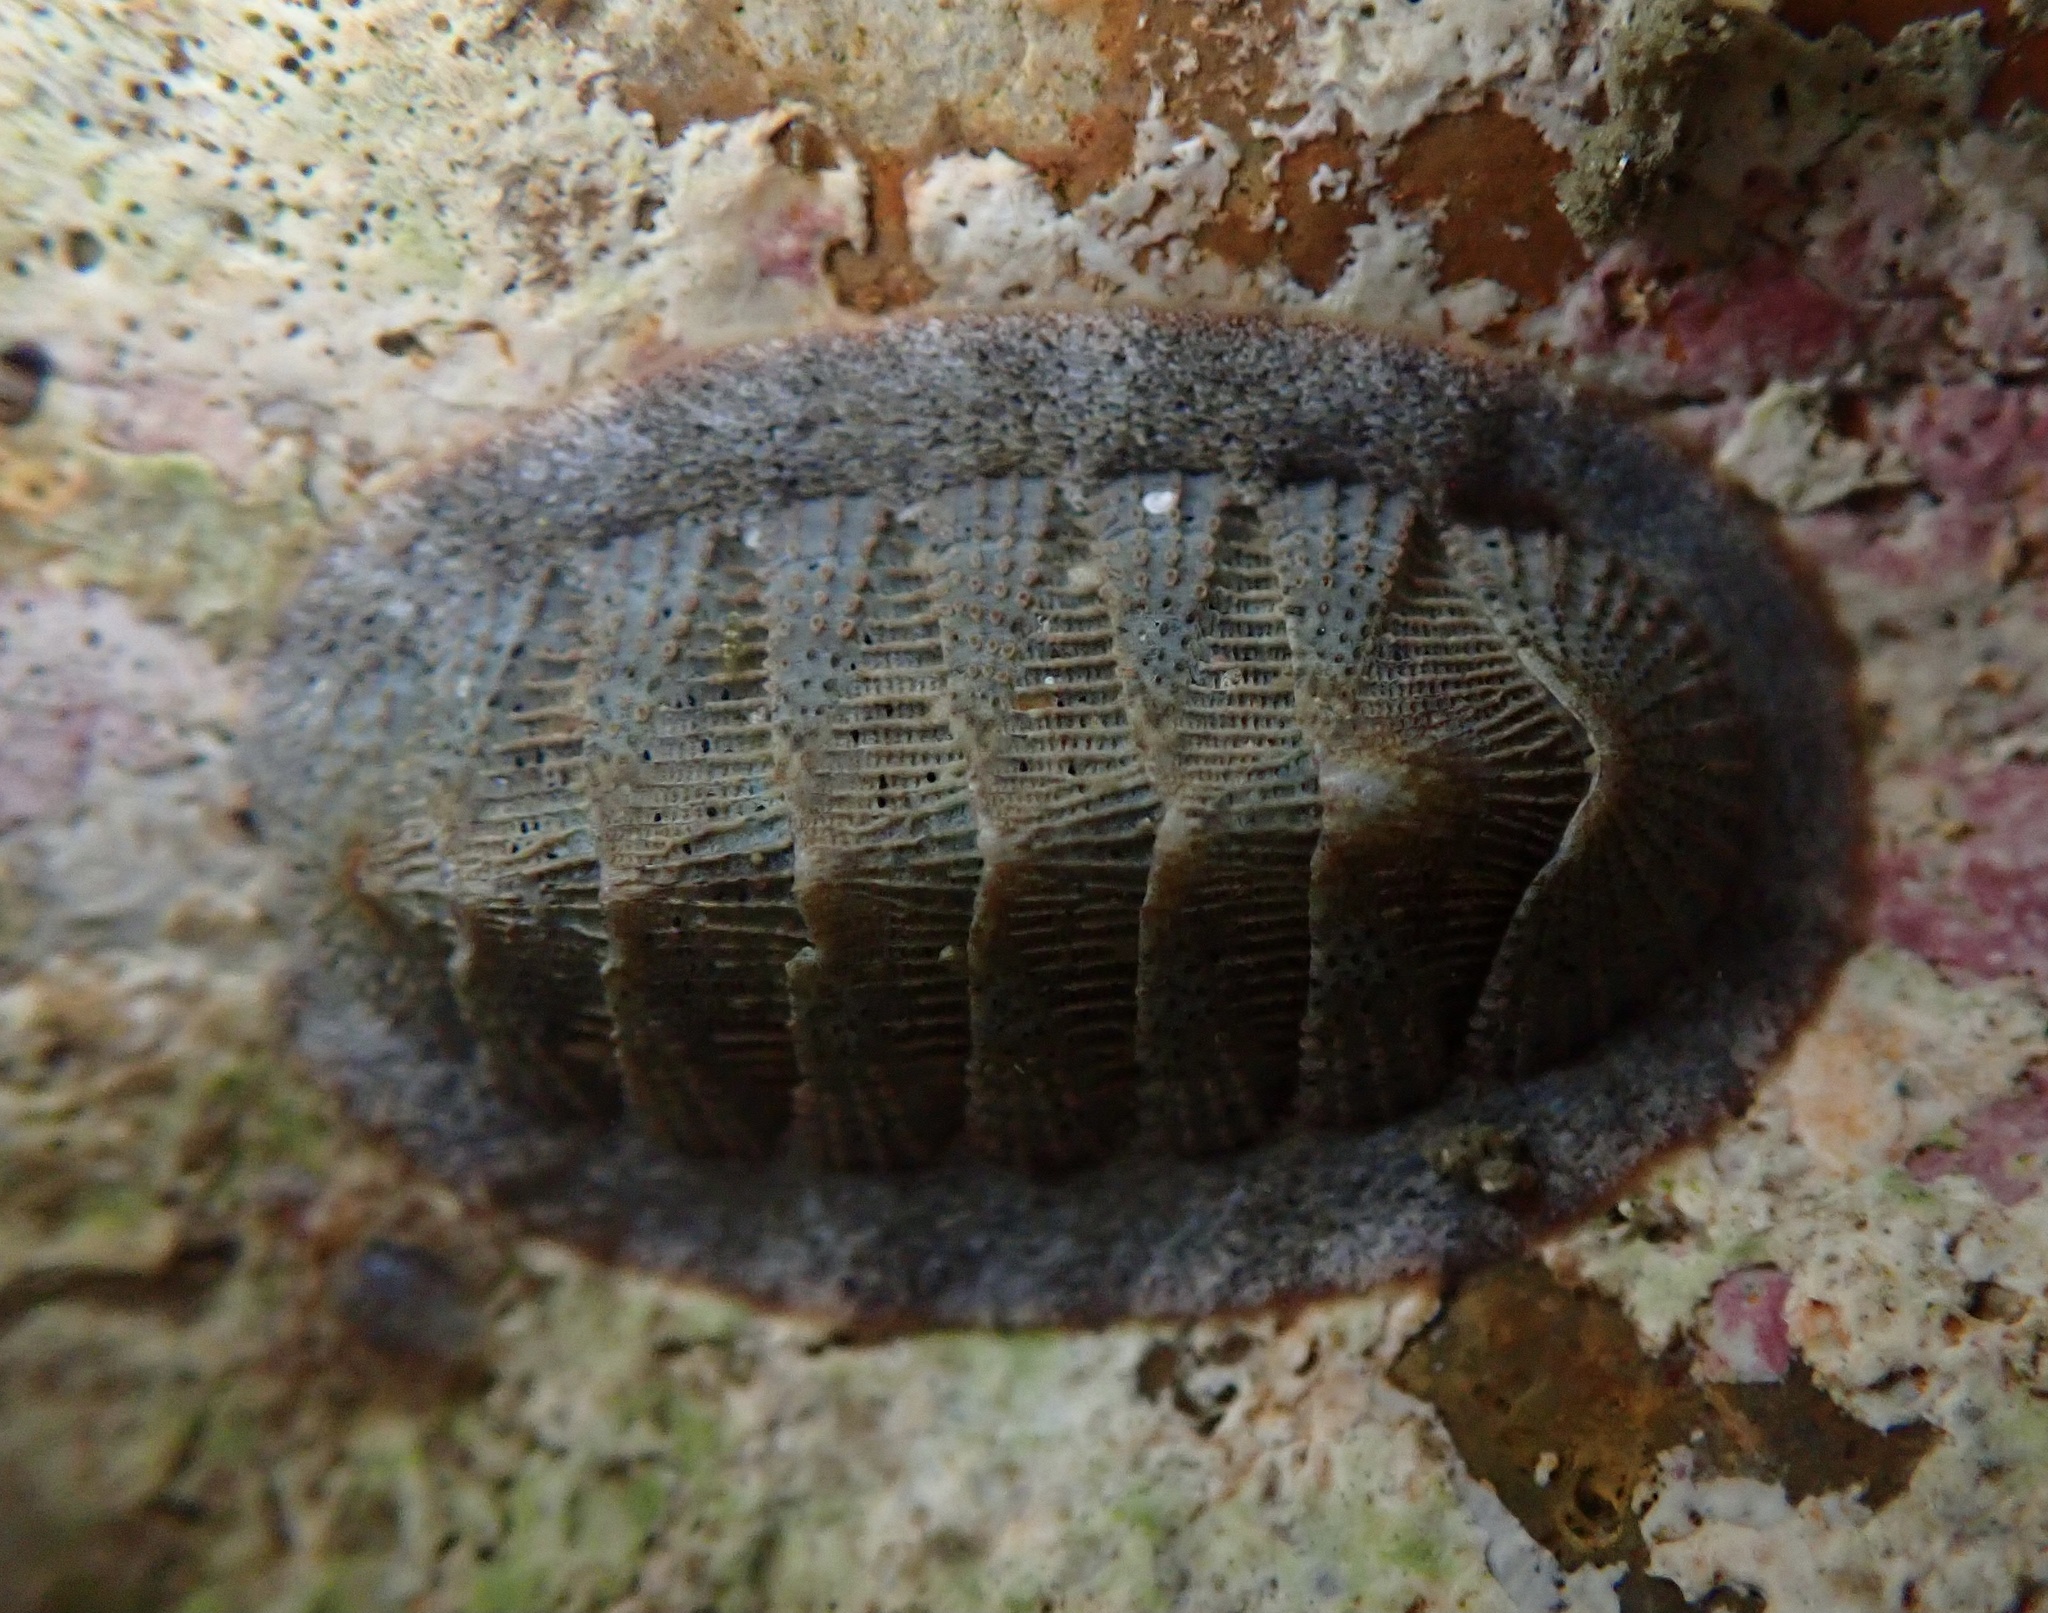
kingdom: Animalia
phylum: Mollusca
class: Polyplacophora
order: Chitonida
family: Ischnochitonidae
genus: Lepidozona
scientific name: Lepidozona cooperi
